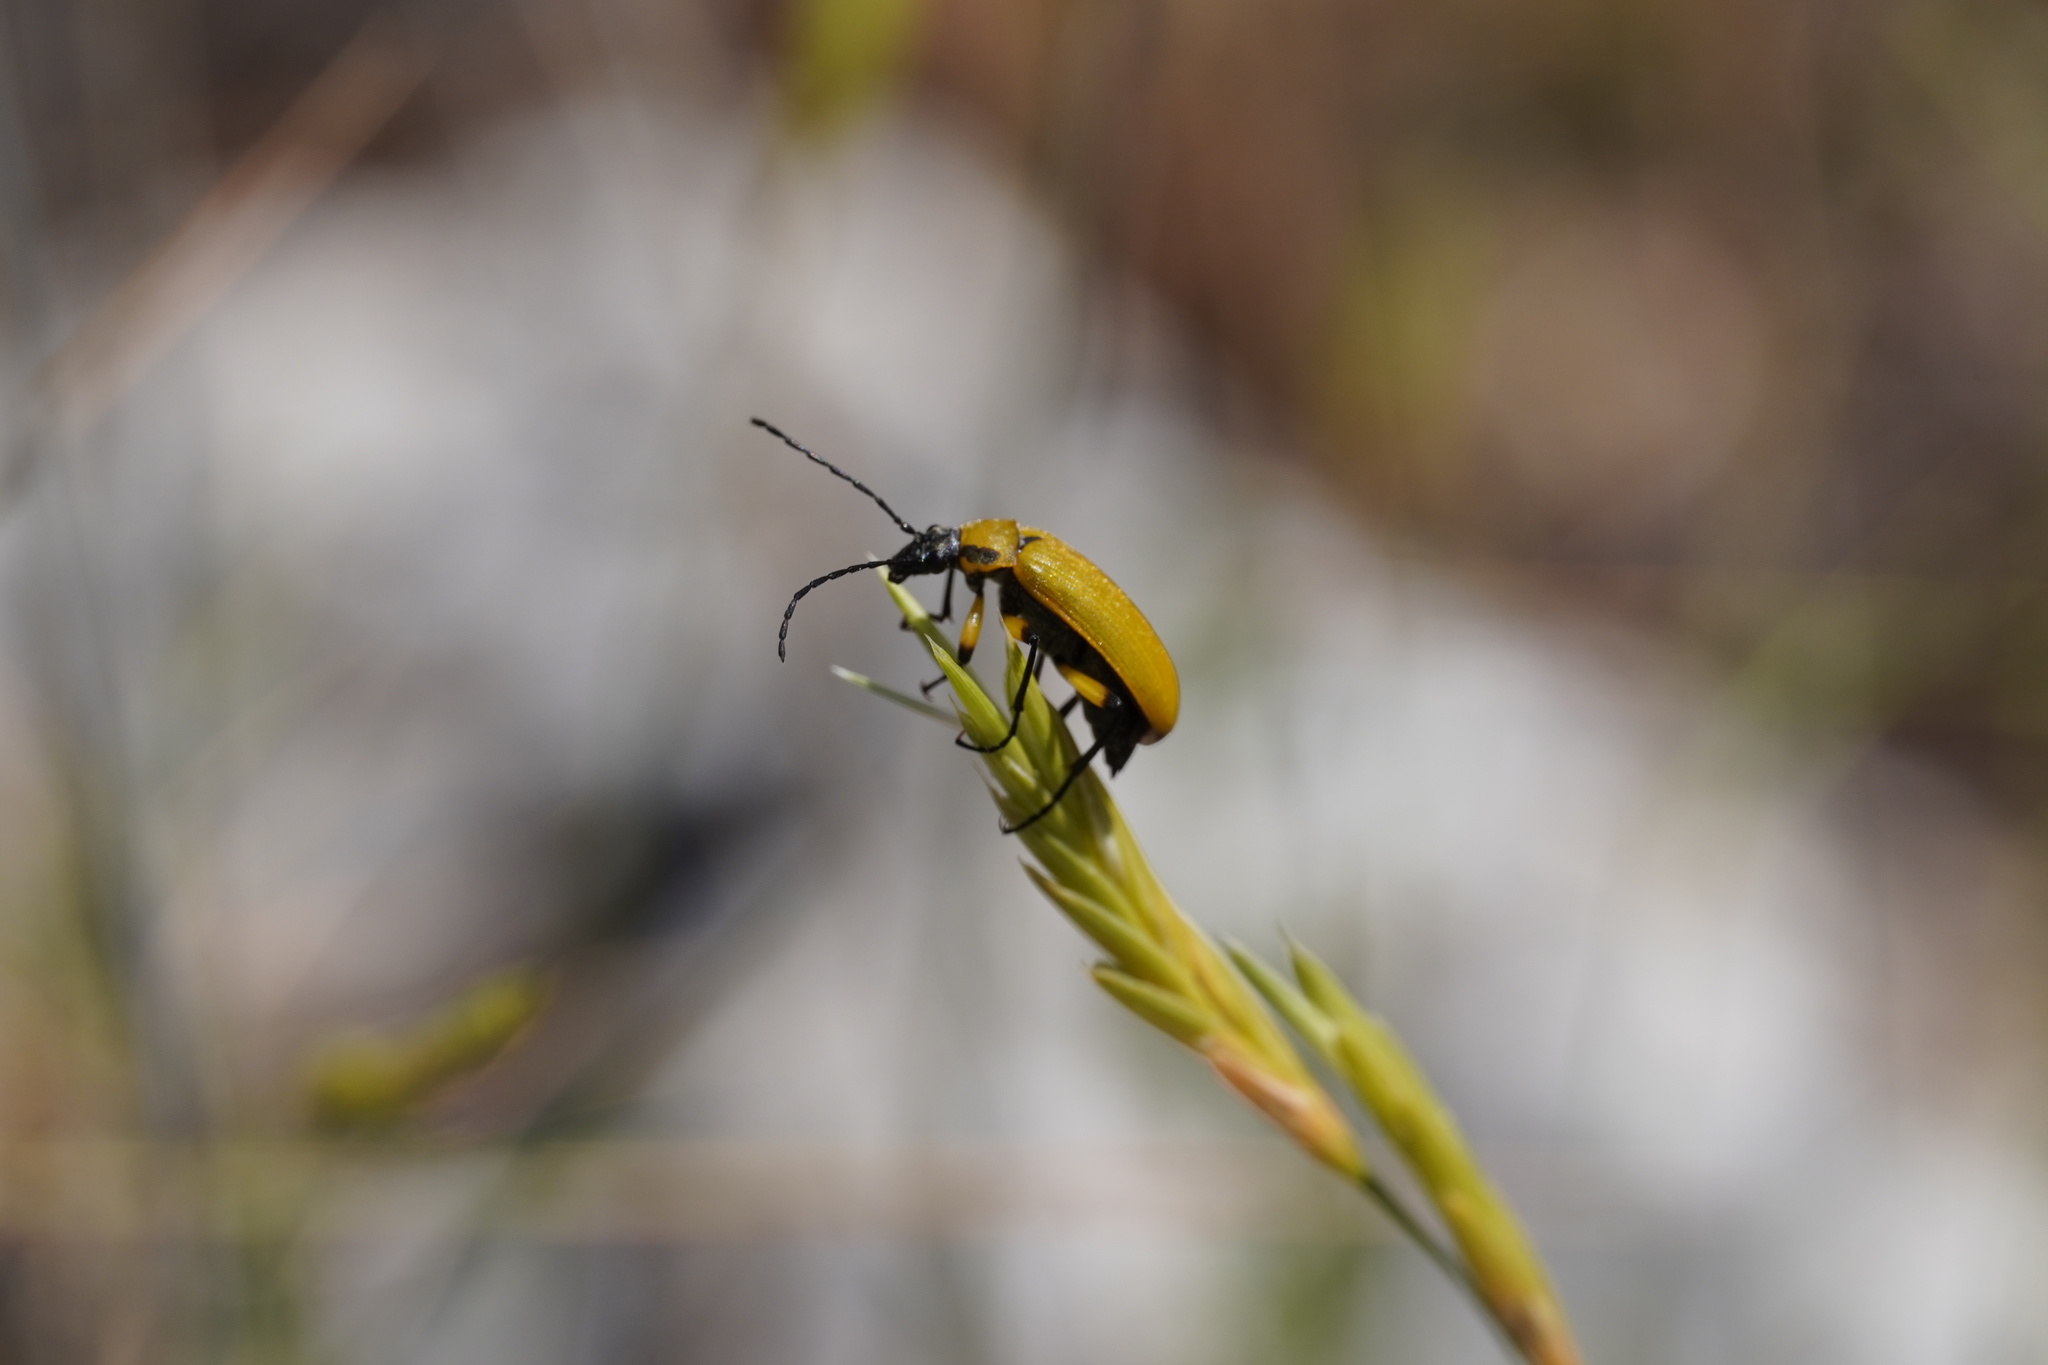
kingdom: Animalia
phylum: Arthropoda
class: Insecta
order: Coleoptera
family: Tenebrionidae
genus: Proctenius
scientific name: Proctenius luteus
